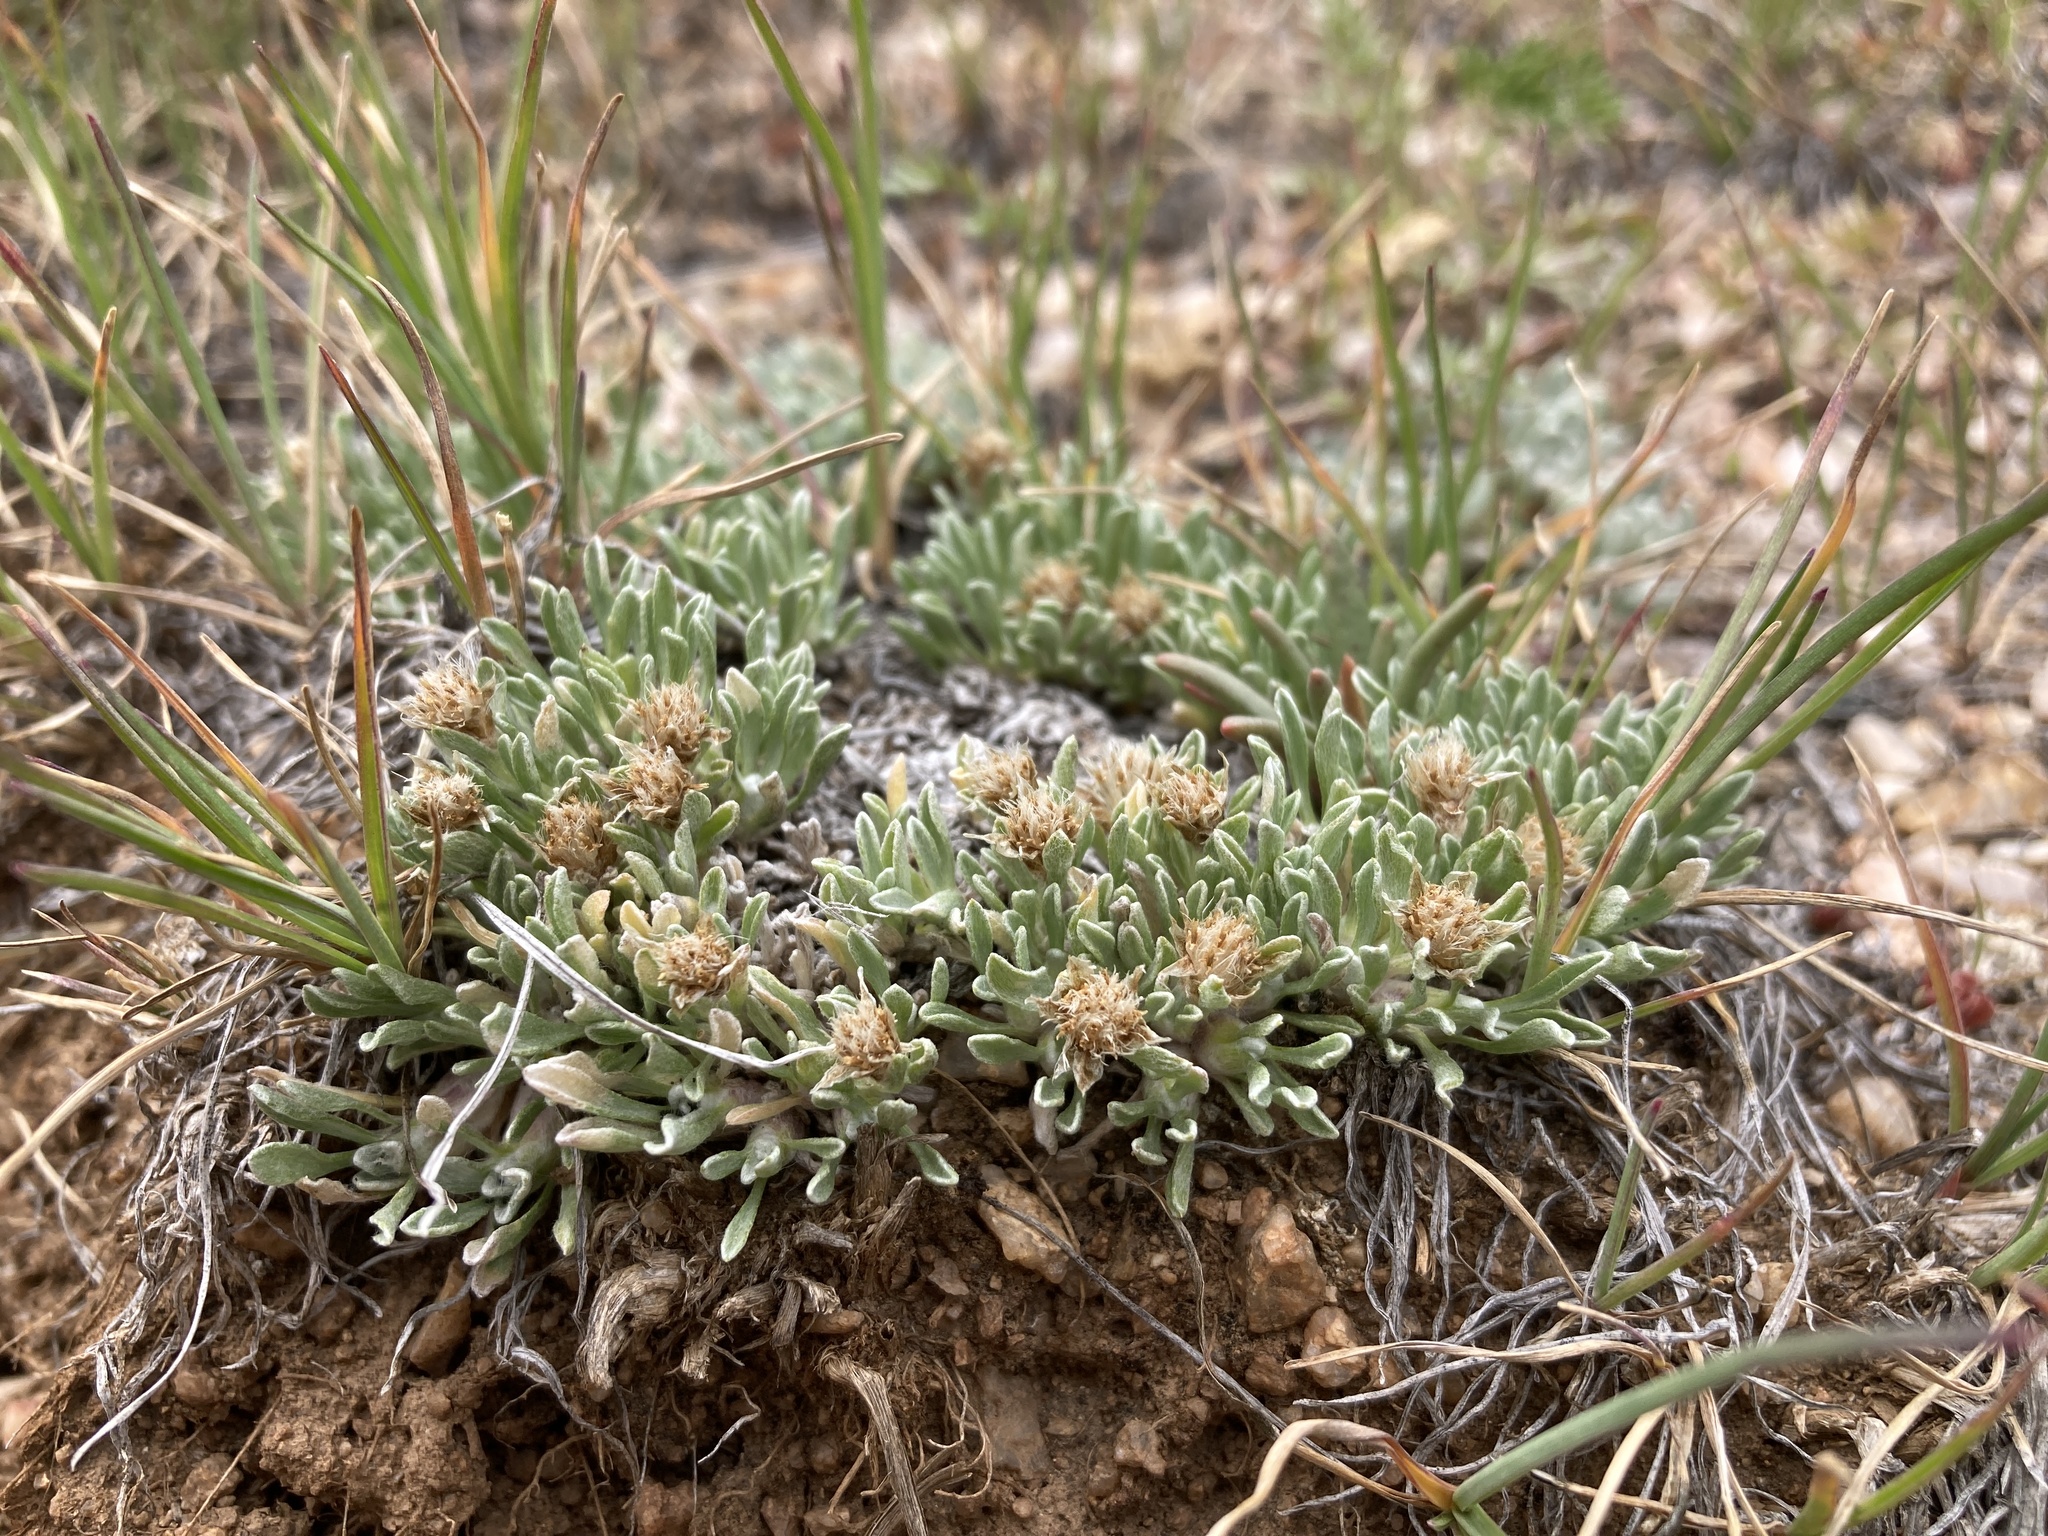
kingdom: Plantae
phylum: Tracheophyta
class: Magnoliopsida
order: Asterales
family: Asteraceae
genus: Antennaria
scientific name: Antennaria dimorpha
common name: Cushion pussytoes
